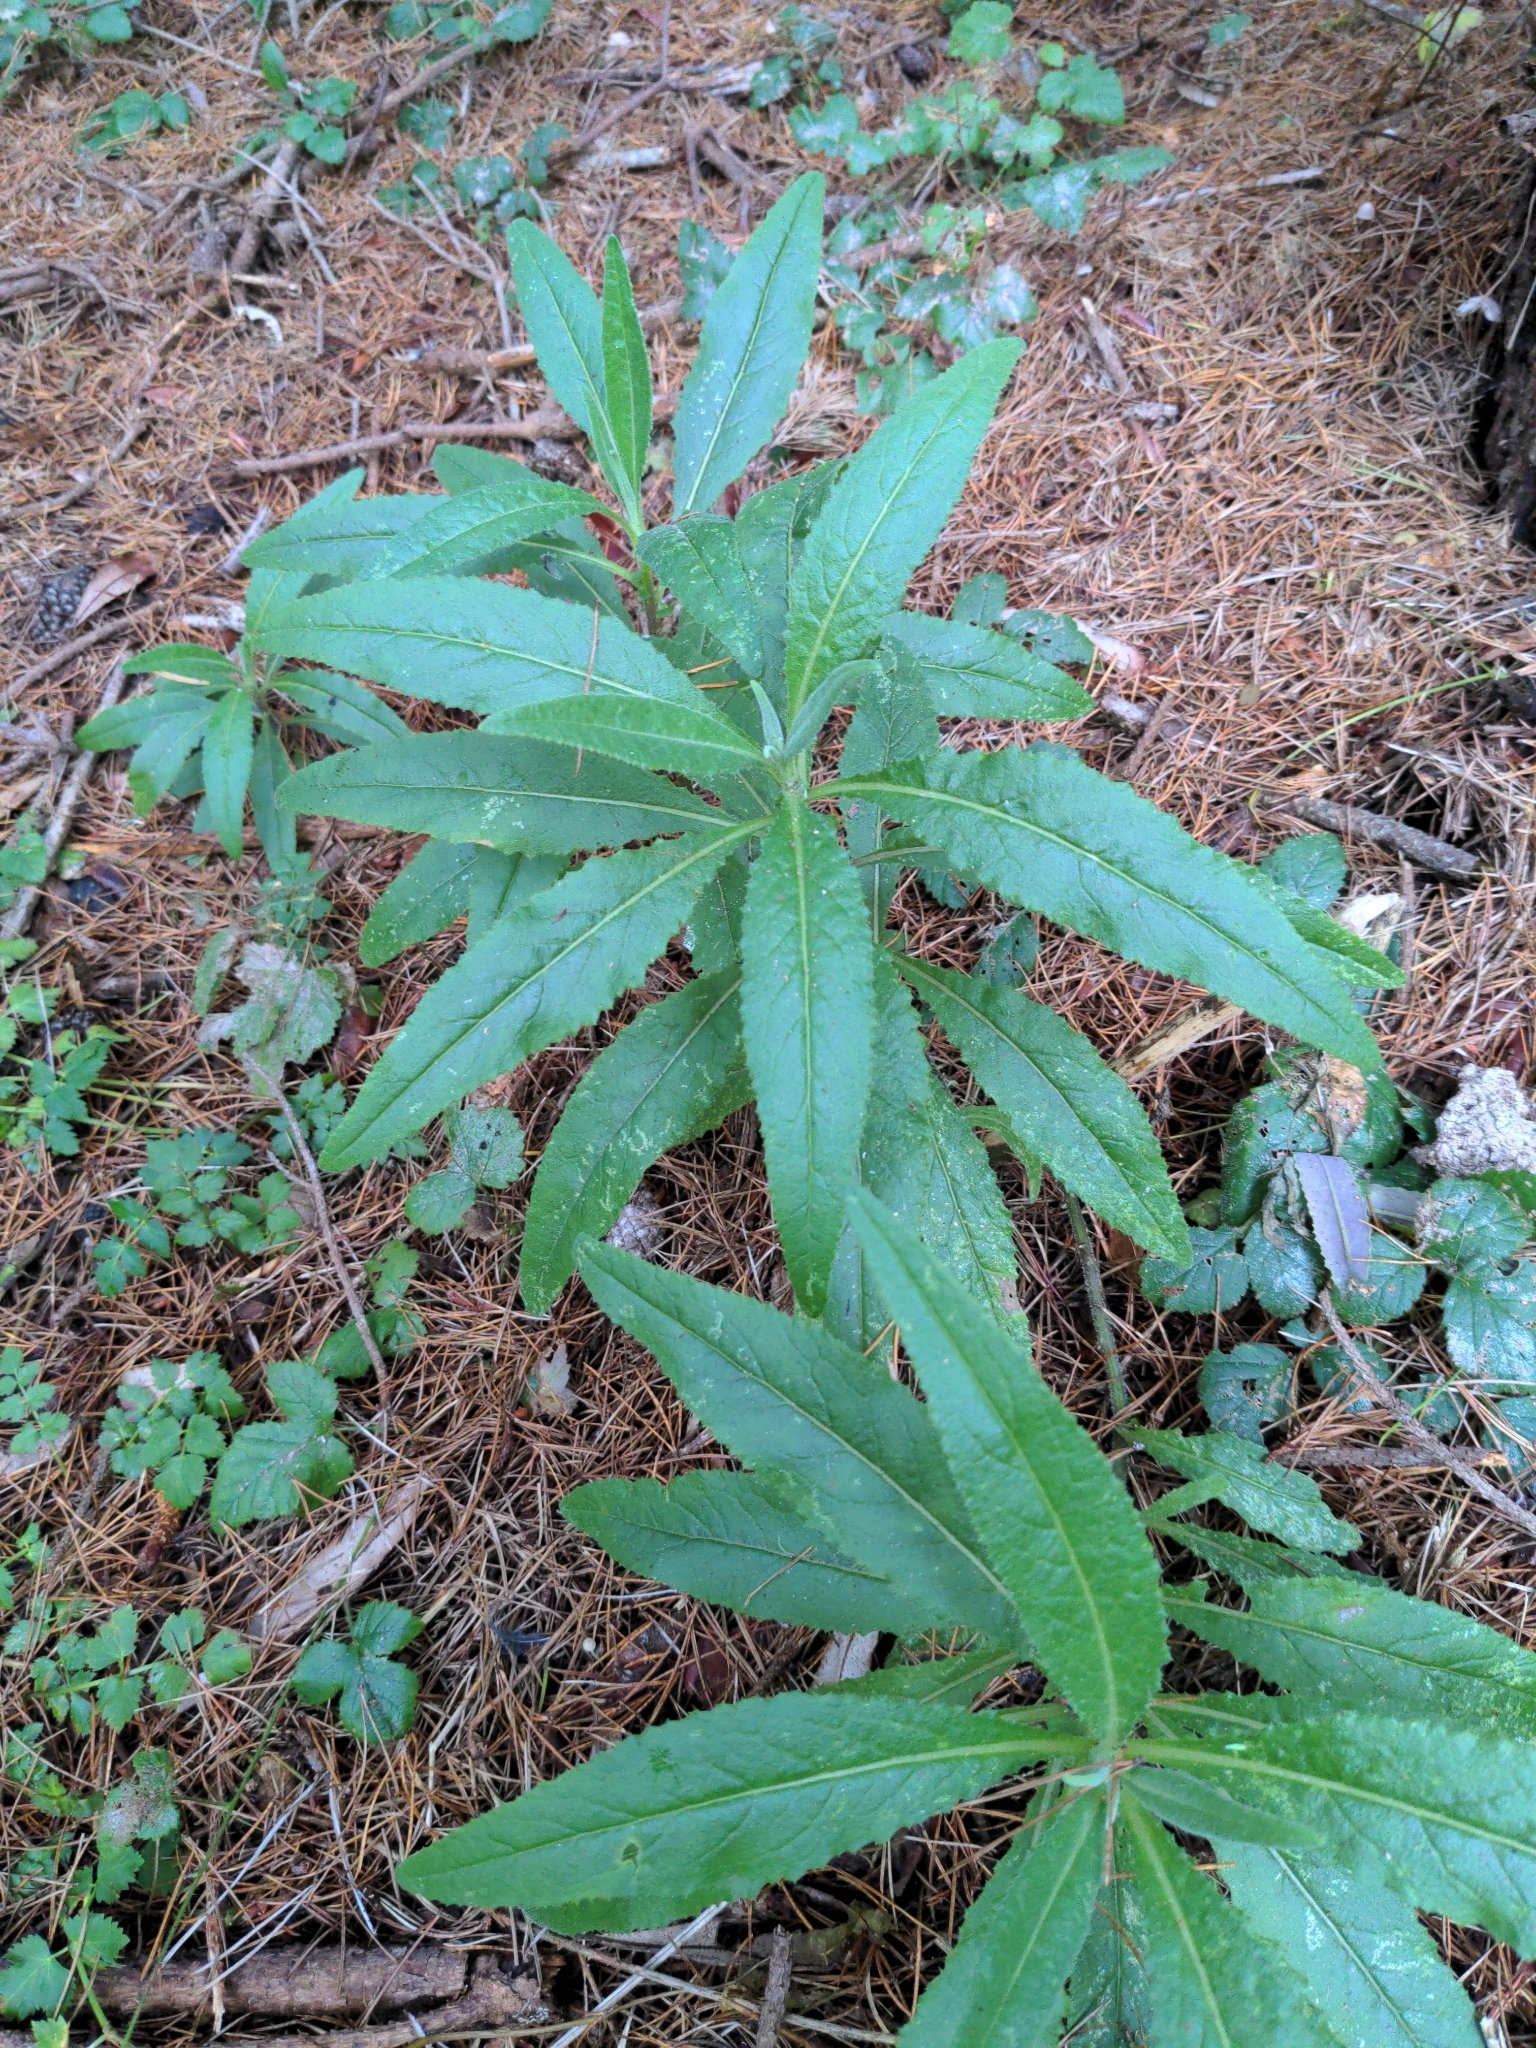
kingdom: Plantae
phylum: Tracheophyta
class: Magnoliopsida
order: Asterales
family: Asteraceae
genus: Senecio
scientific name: Senecio minimus
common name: Toothed fireweed
